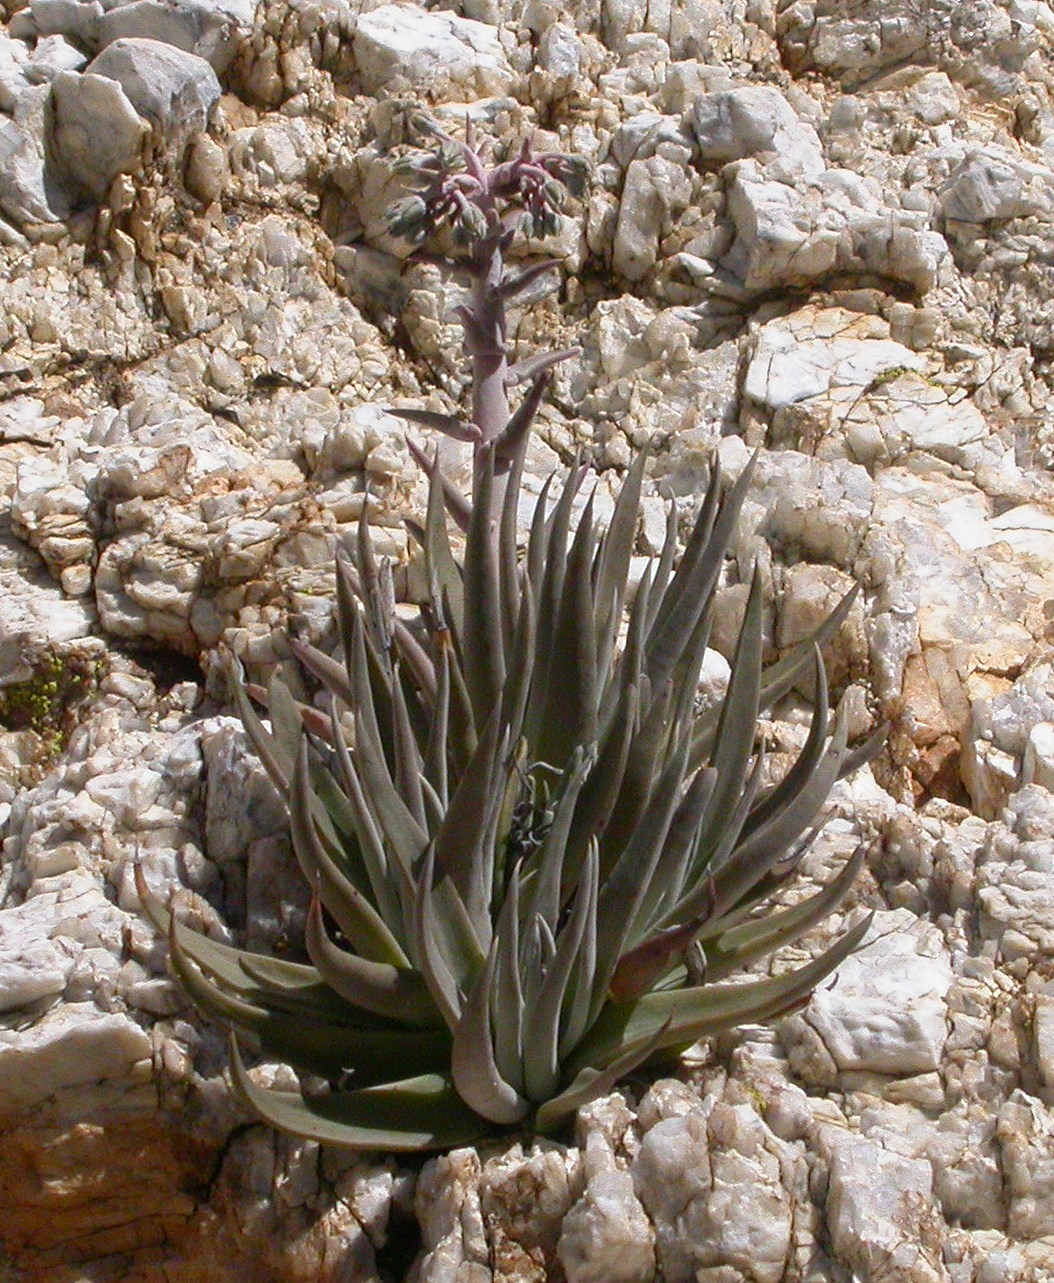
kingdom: Plantae
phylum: Tracheophyta
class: Magnoliopsida
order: Saxifragales
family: Crassulaceae
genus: Dudleya
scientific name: Dudleya saxosa
